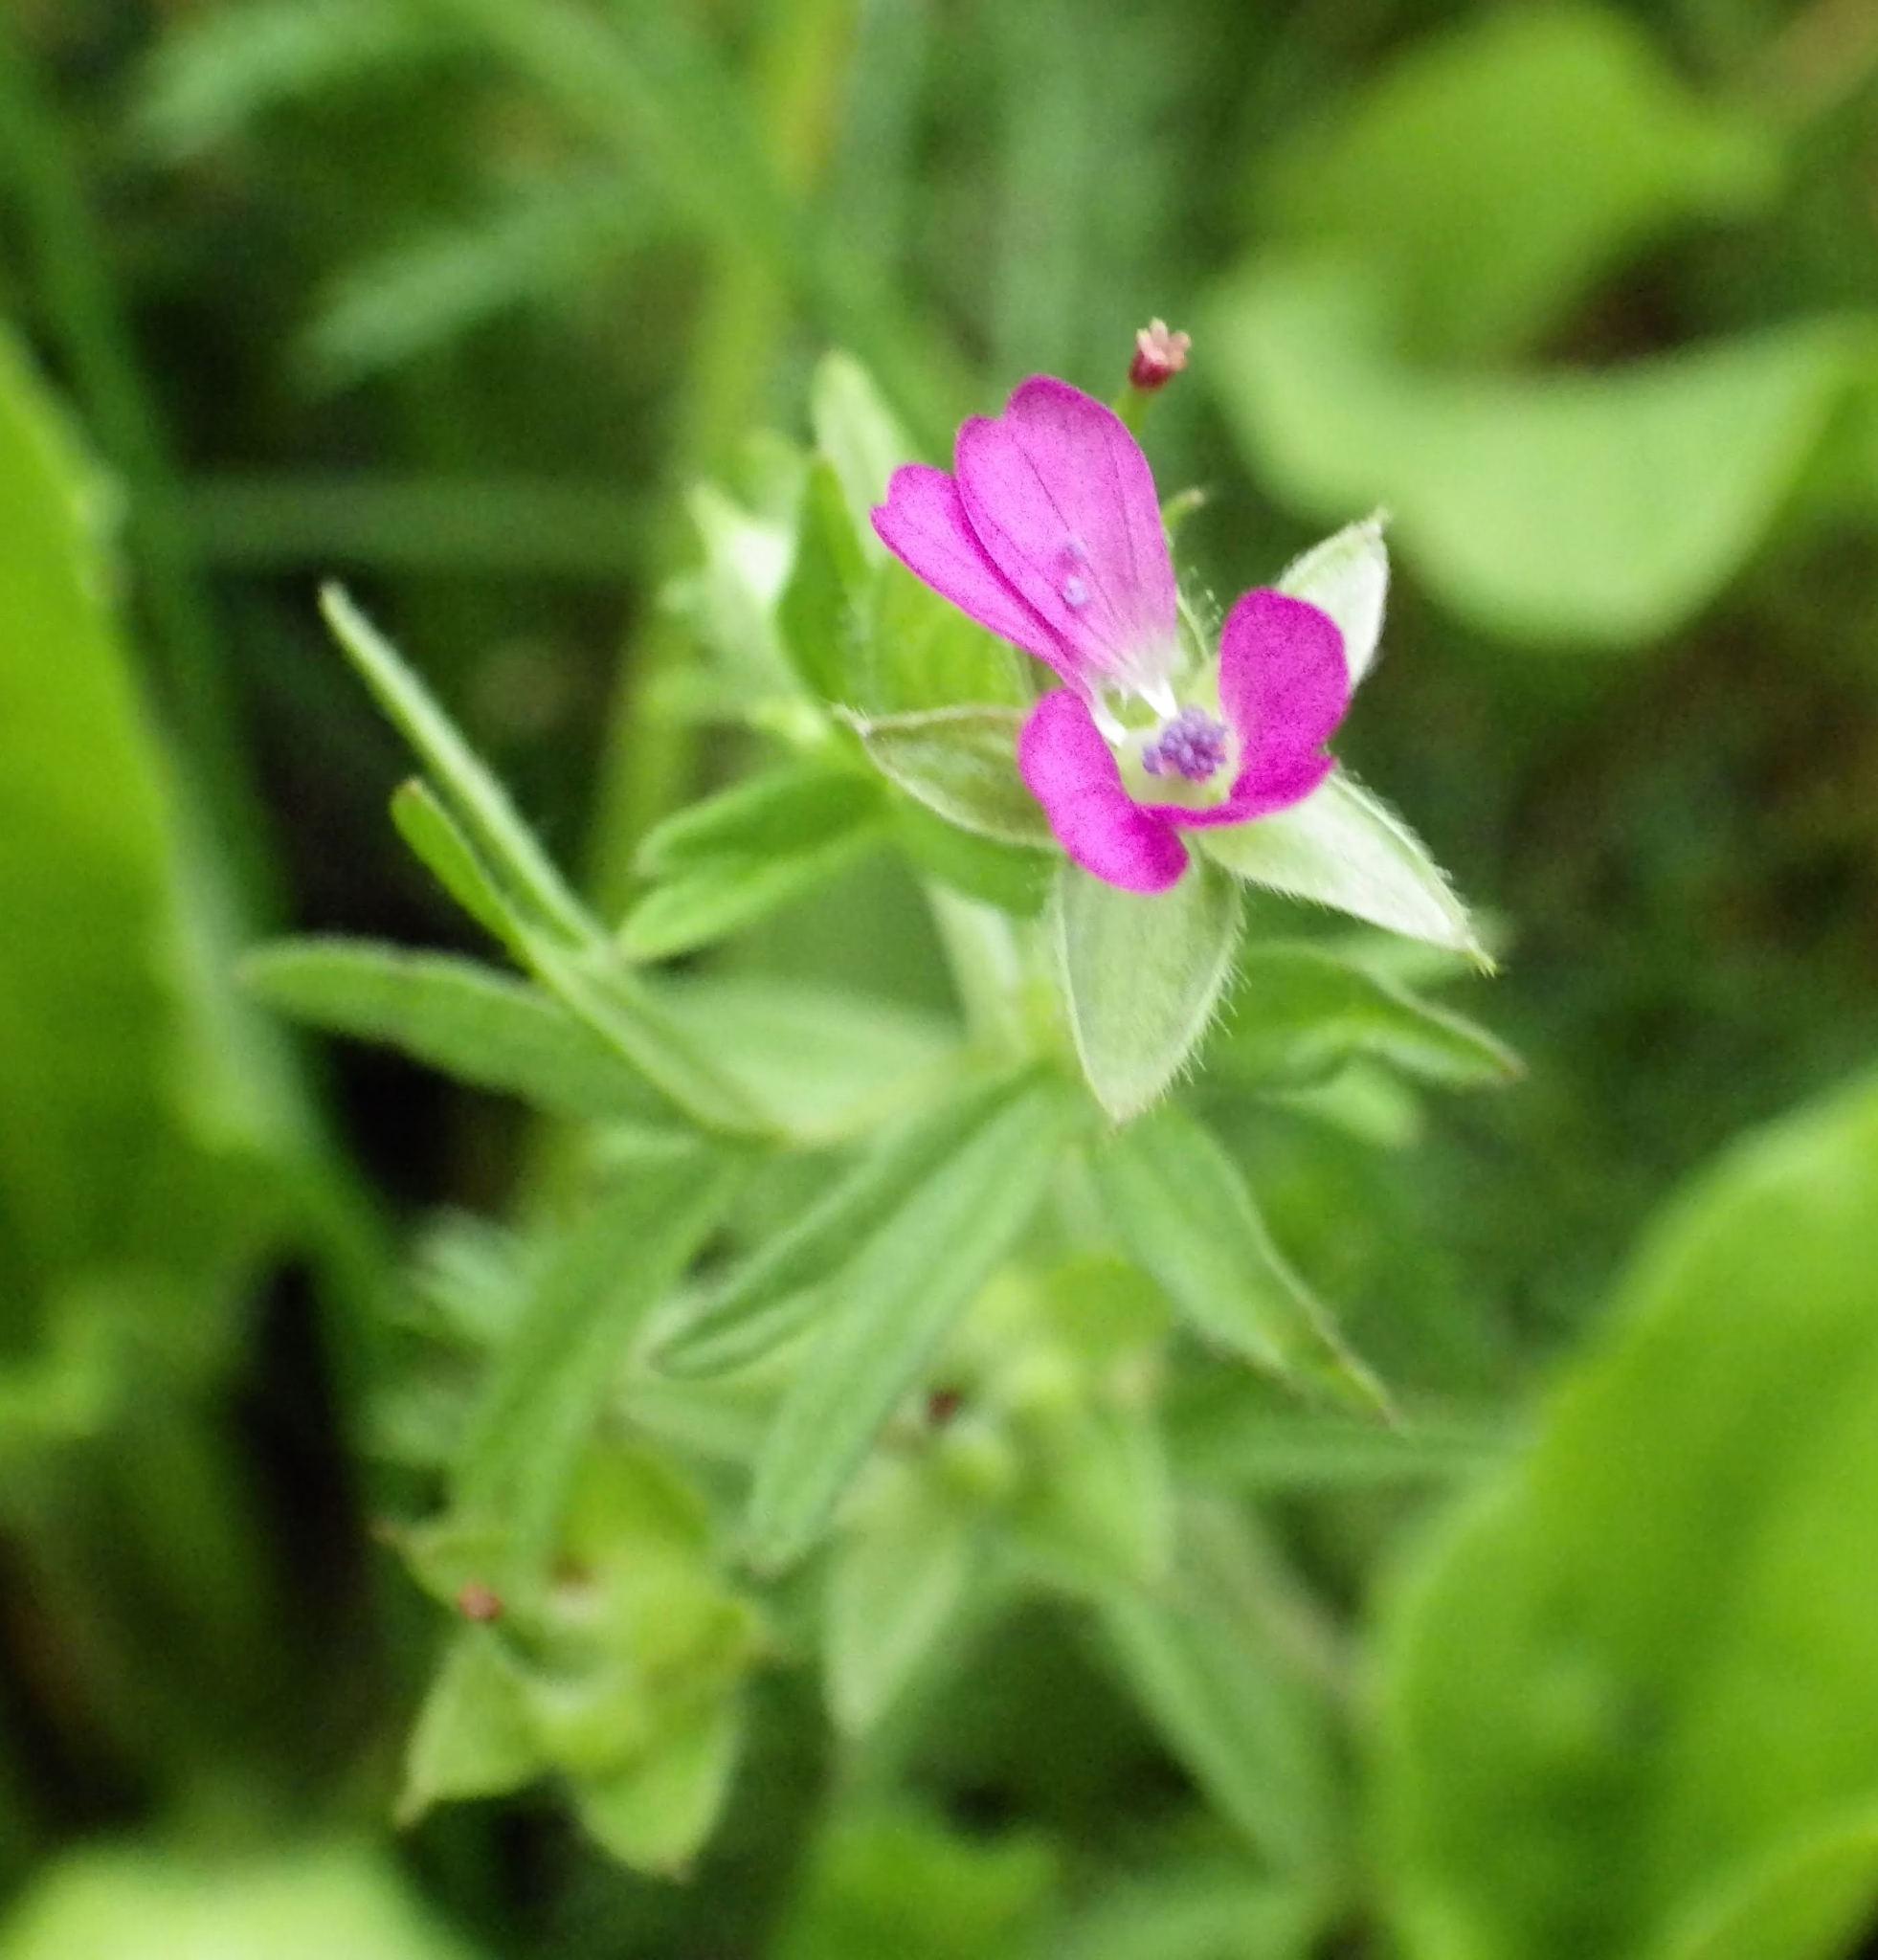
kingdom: Plantae
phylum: Tracheophyta
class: Magnoliopsida
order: Geraniales
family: Geraniaceae
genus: Geranium
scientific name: Geranium dissectum
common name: Cut-leaved crane's-bill
